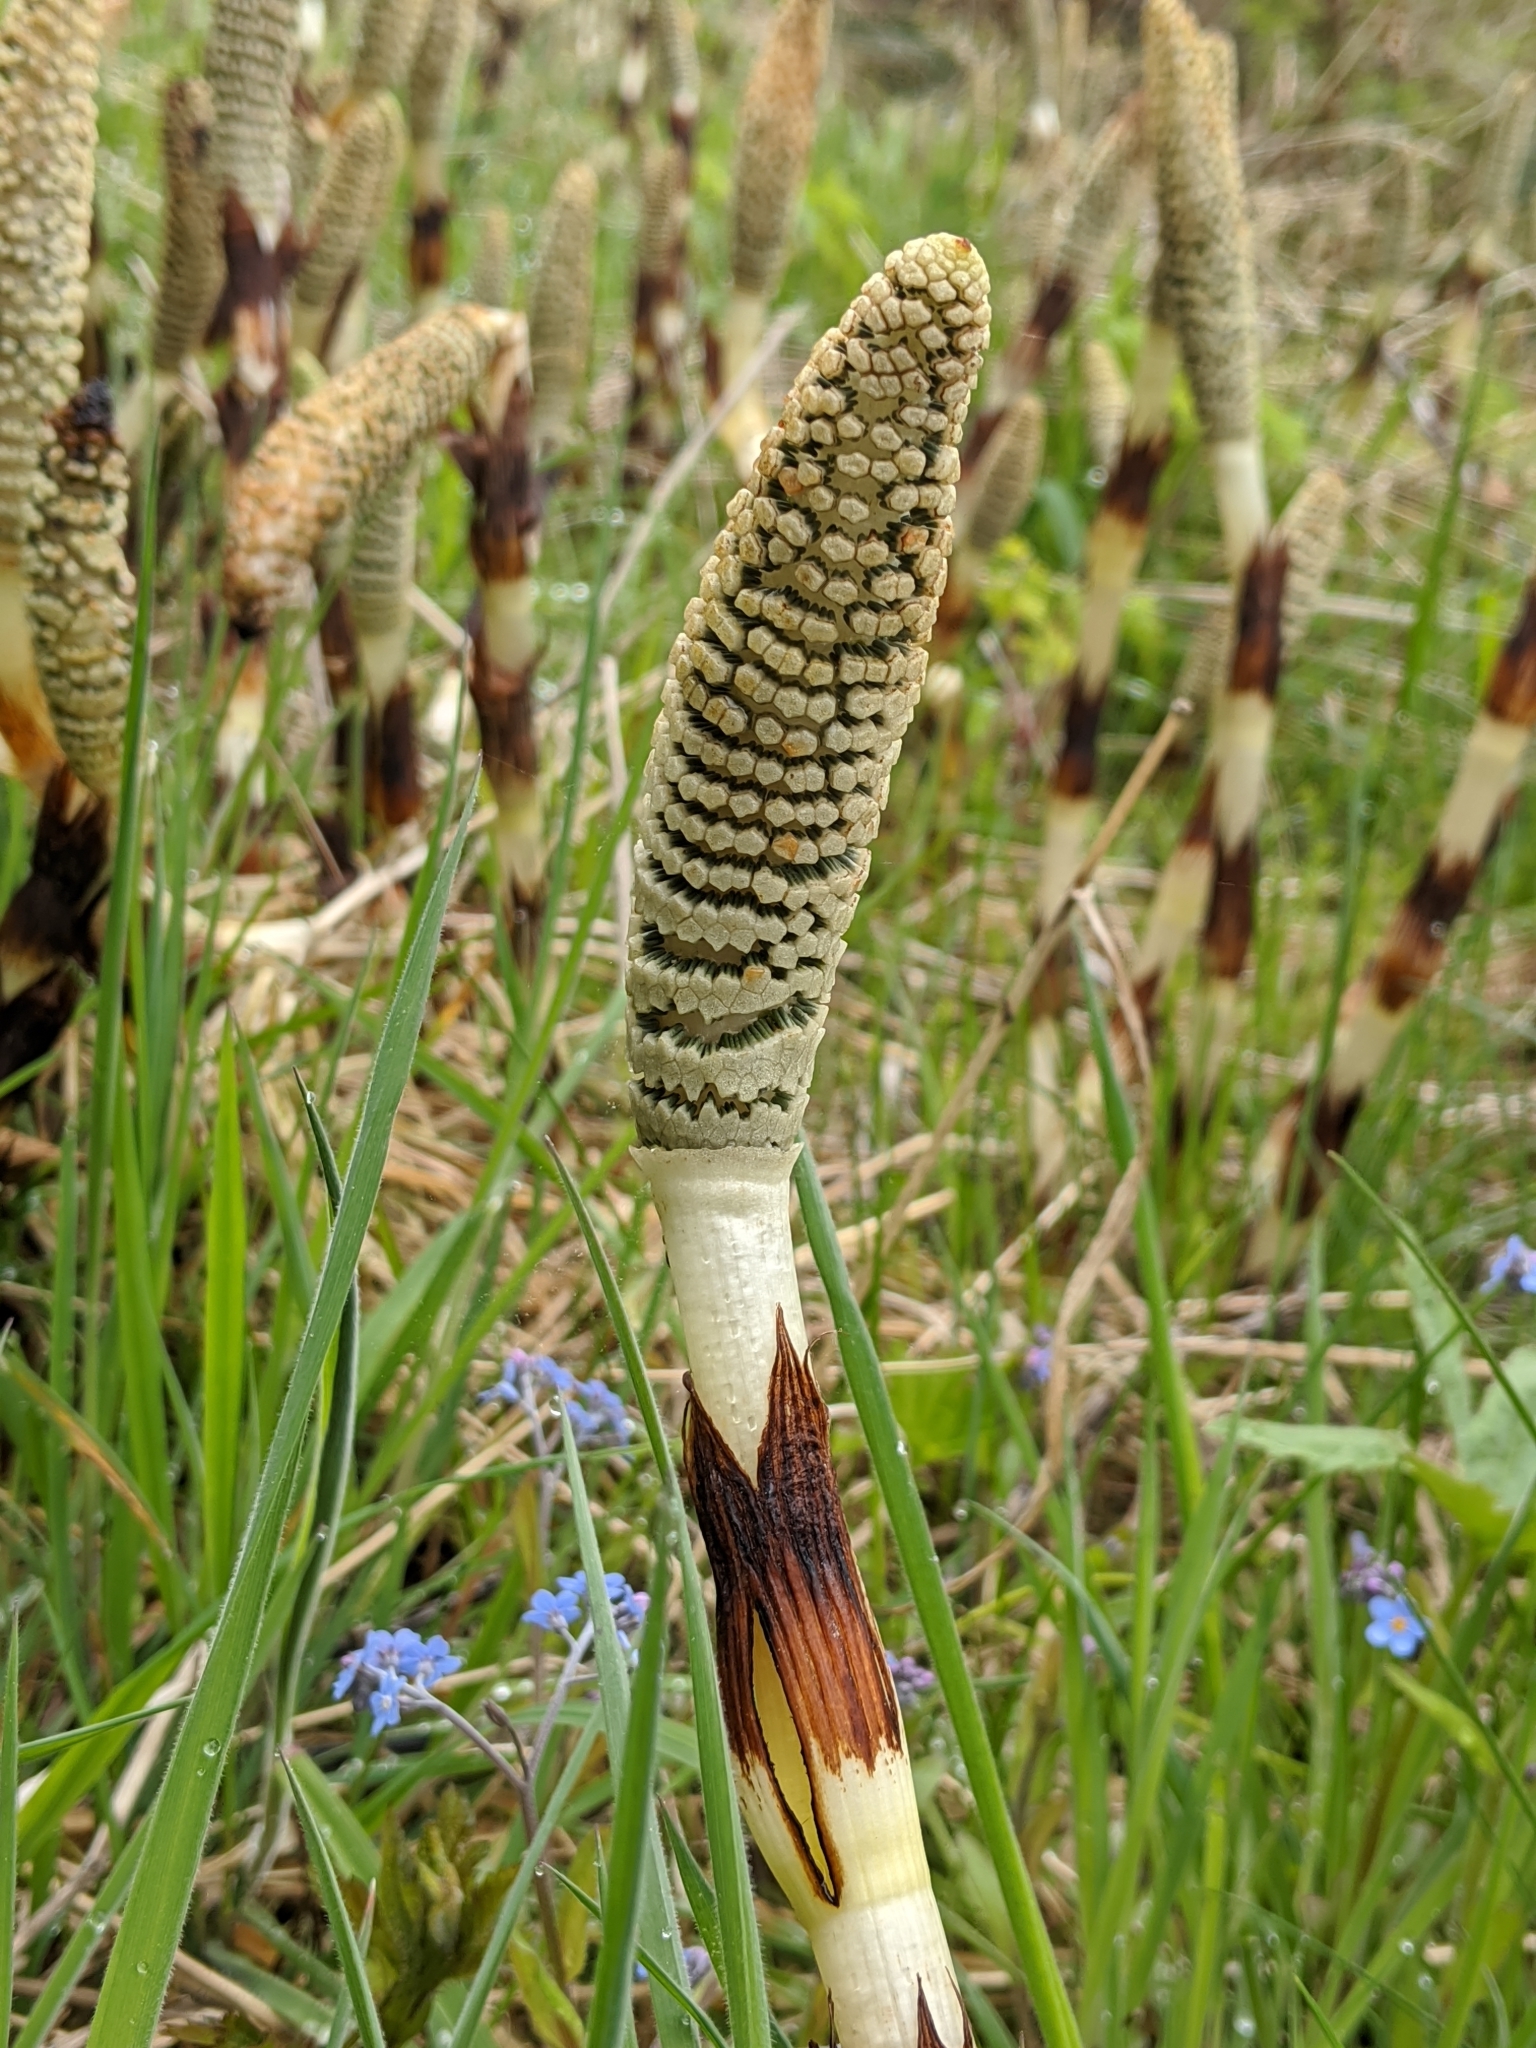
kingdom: Plantae
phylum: Tracheophyta
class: Polypodiopsida
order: Equisetales
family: Equisetaceae
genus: Equisetum
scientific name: Equisetum braunii
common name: Braun's horsetail
